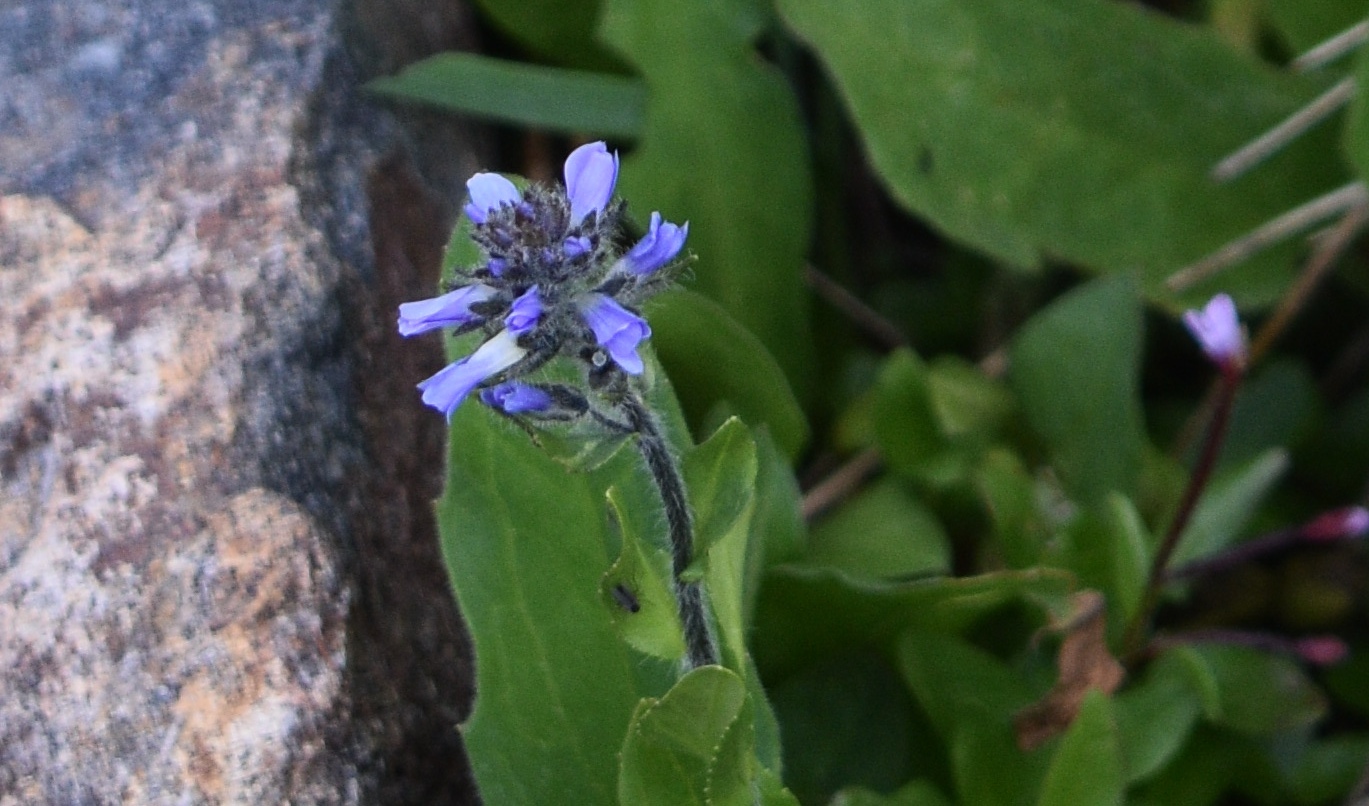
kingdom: Plantae
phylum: Tracheophyta
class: Magnoliopsida
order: Lamiales
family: Plantaginaceae
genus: Veronica
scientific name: Veronica wormskjoldii
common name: American alpine speedwell
